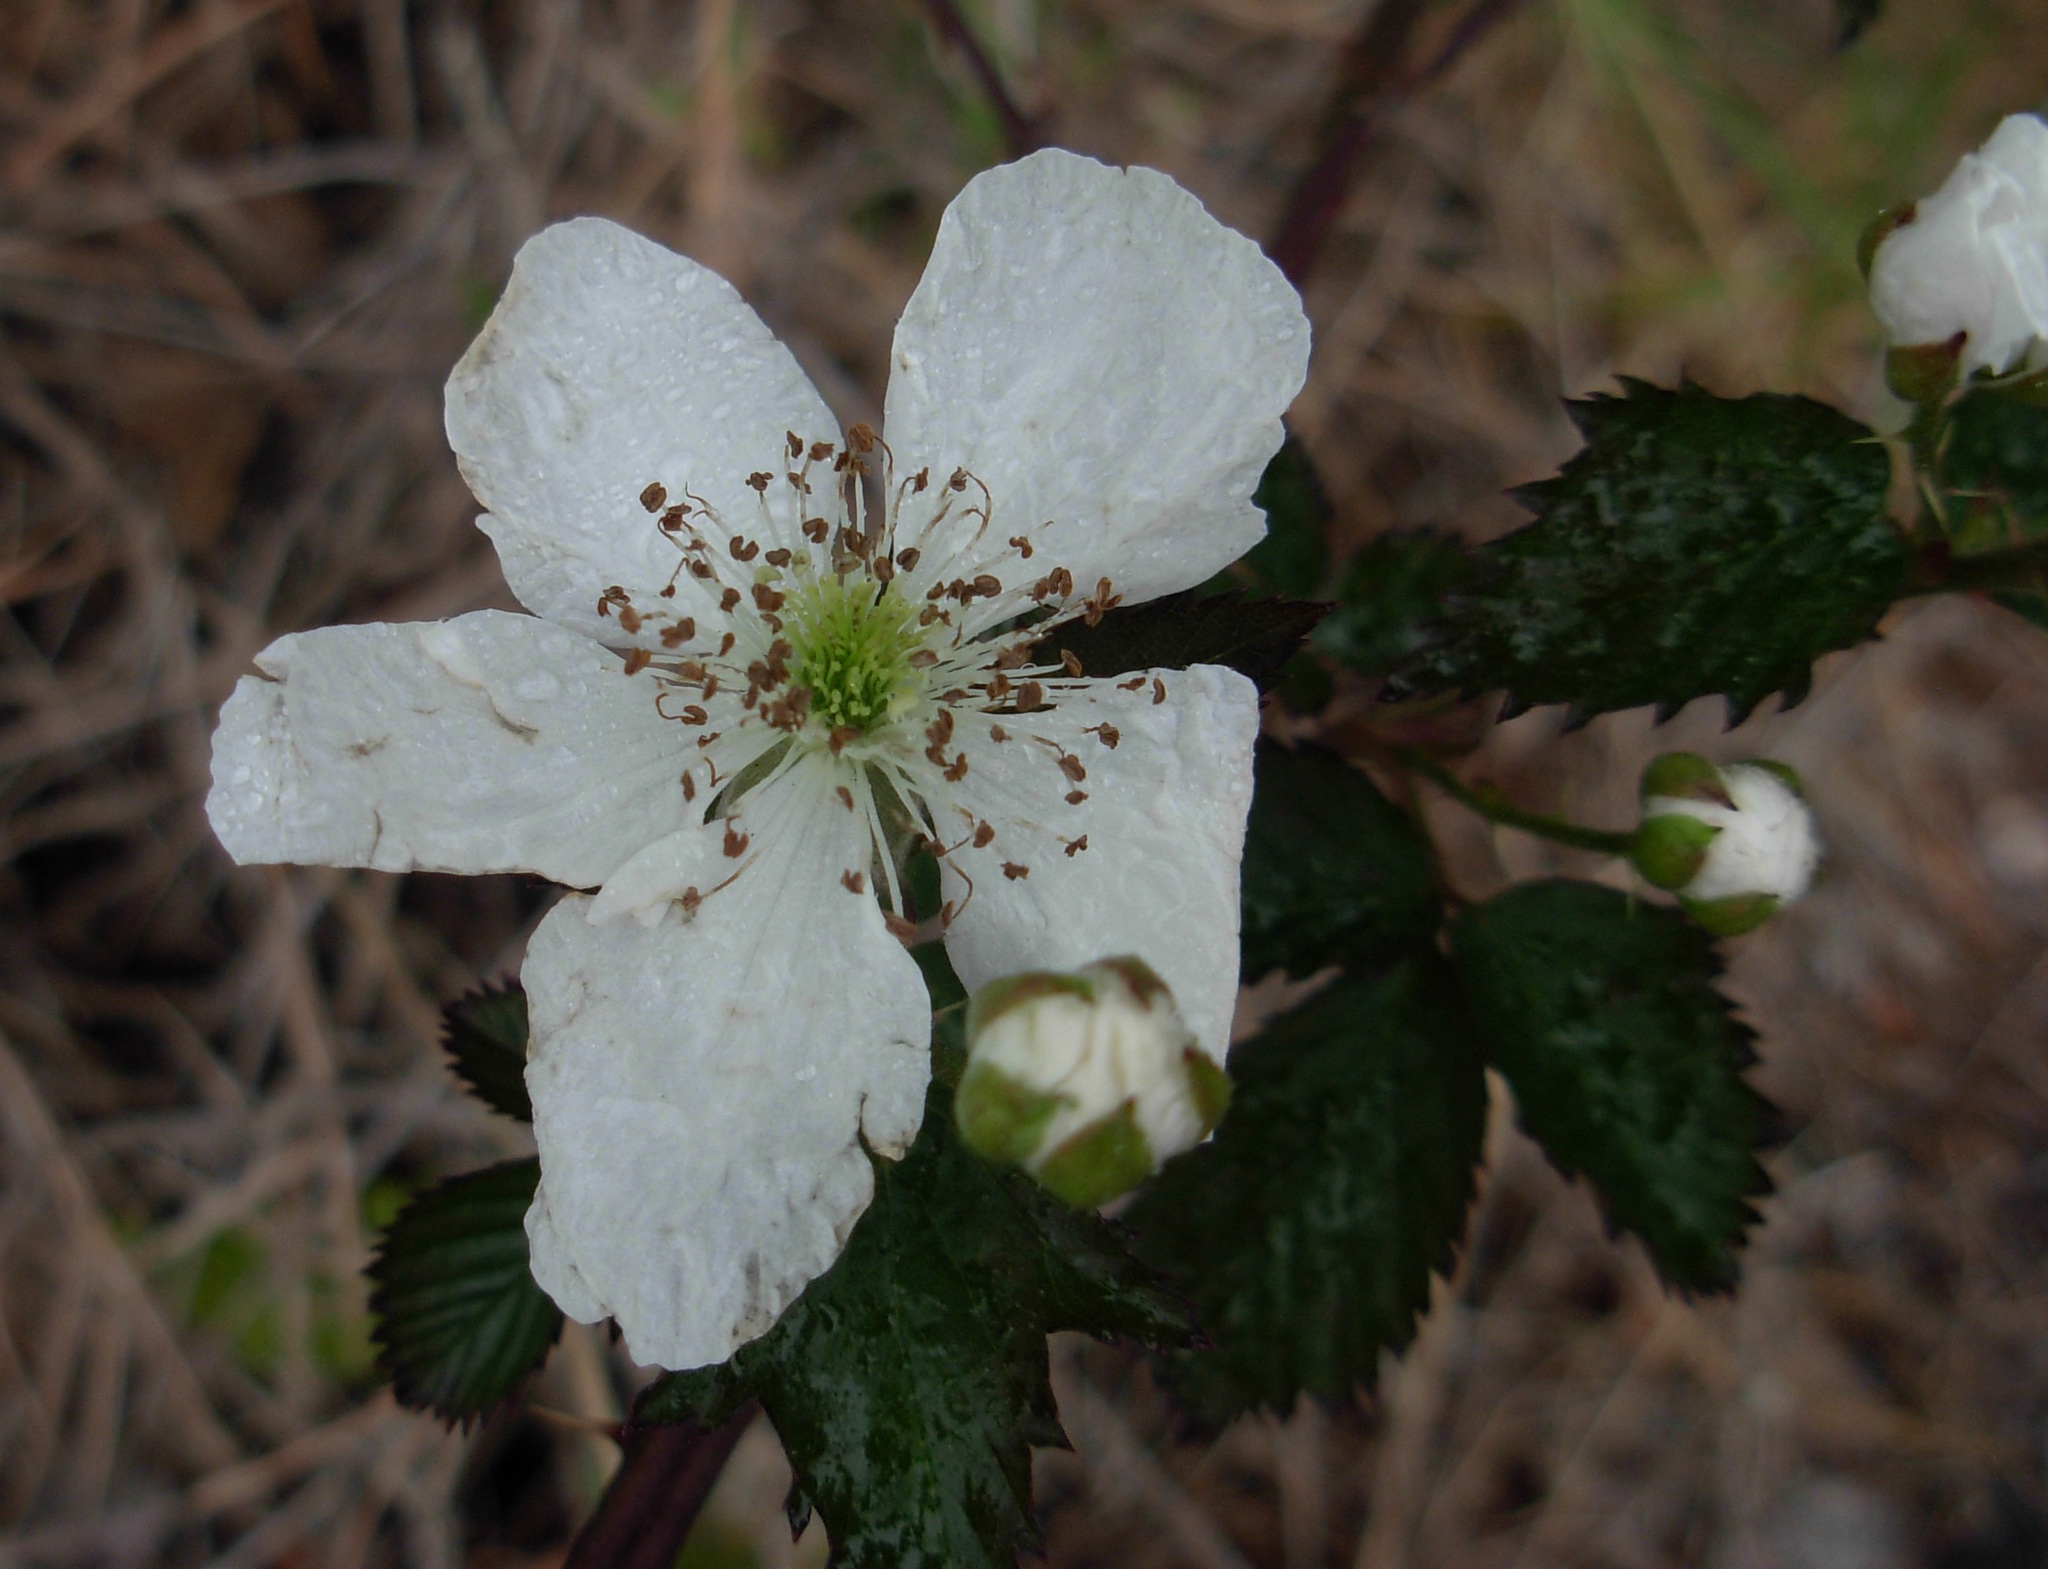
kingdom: Plantae
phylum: Tracheophyta
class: Magnoliopsida
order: Rosales
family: Rosaceae
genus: Rubus
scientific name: Rubus argutus
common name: Sawtooth blackberry
